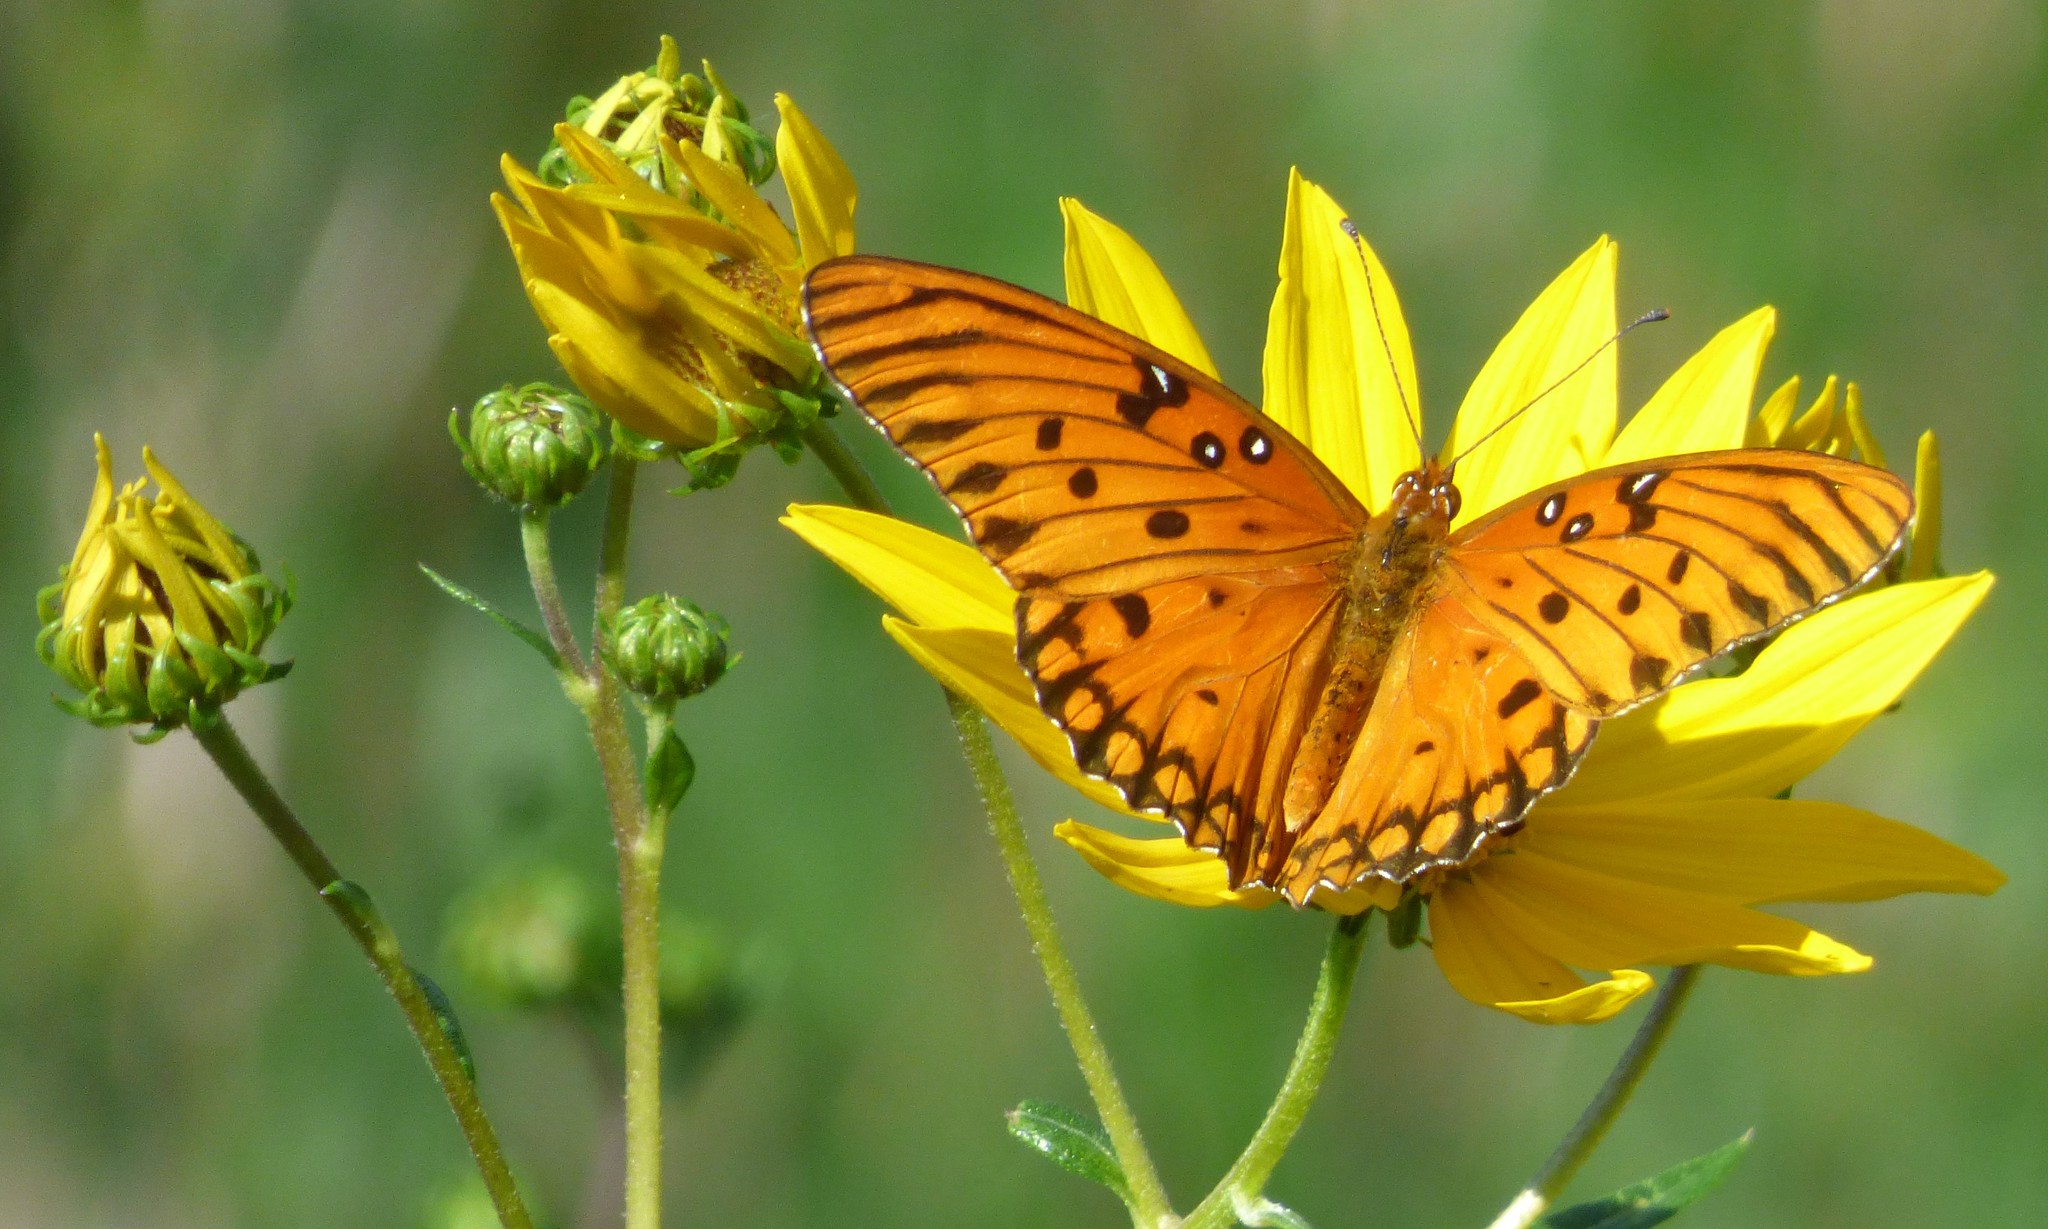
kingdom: Animalia
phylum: Arthropoda
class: Insecta
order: Lepidoptera
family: Nymphalidae
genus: Dione
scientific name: Dione vanillae
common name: Gulf fritillary
